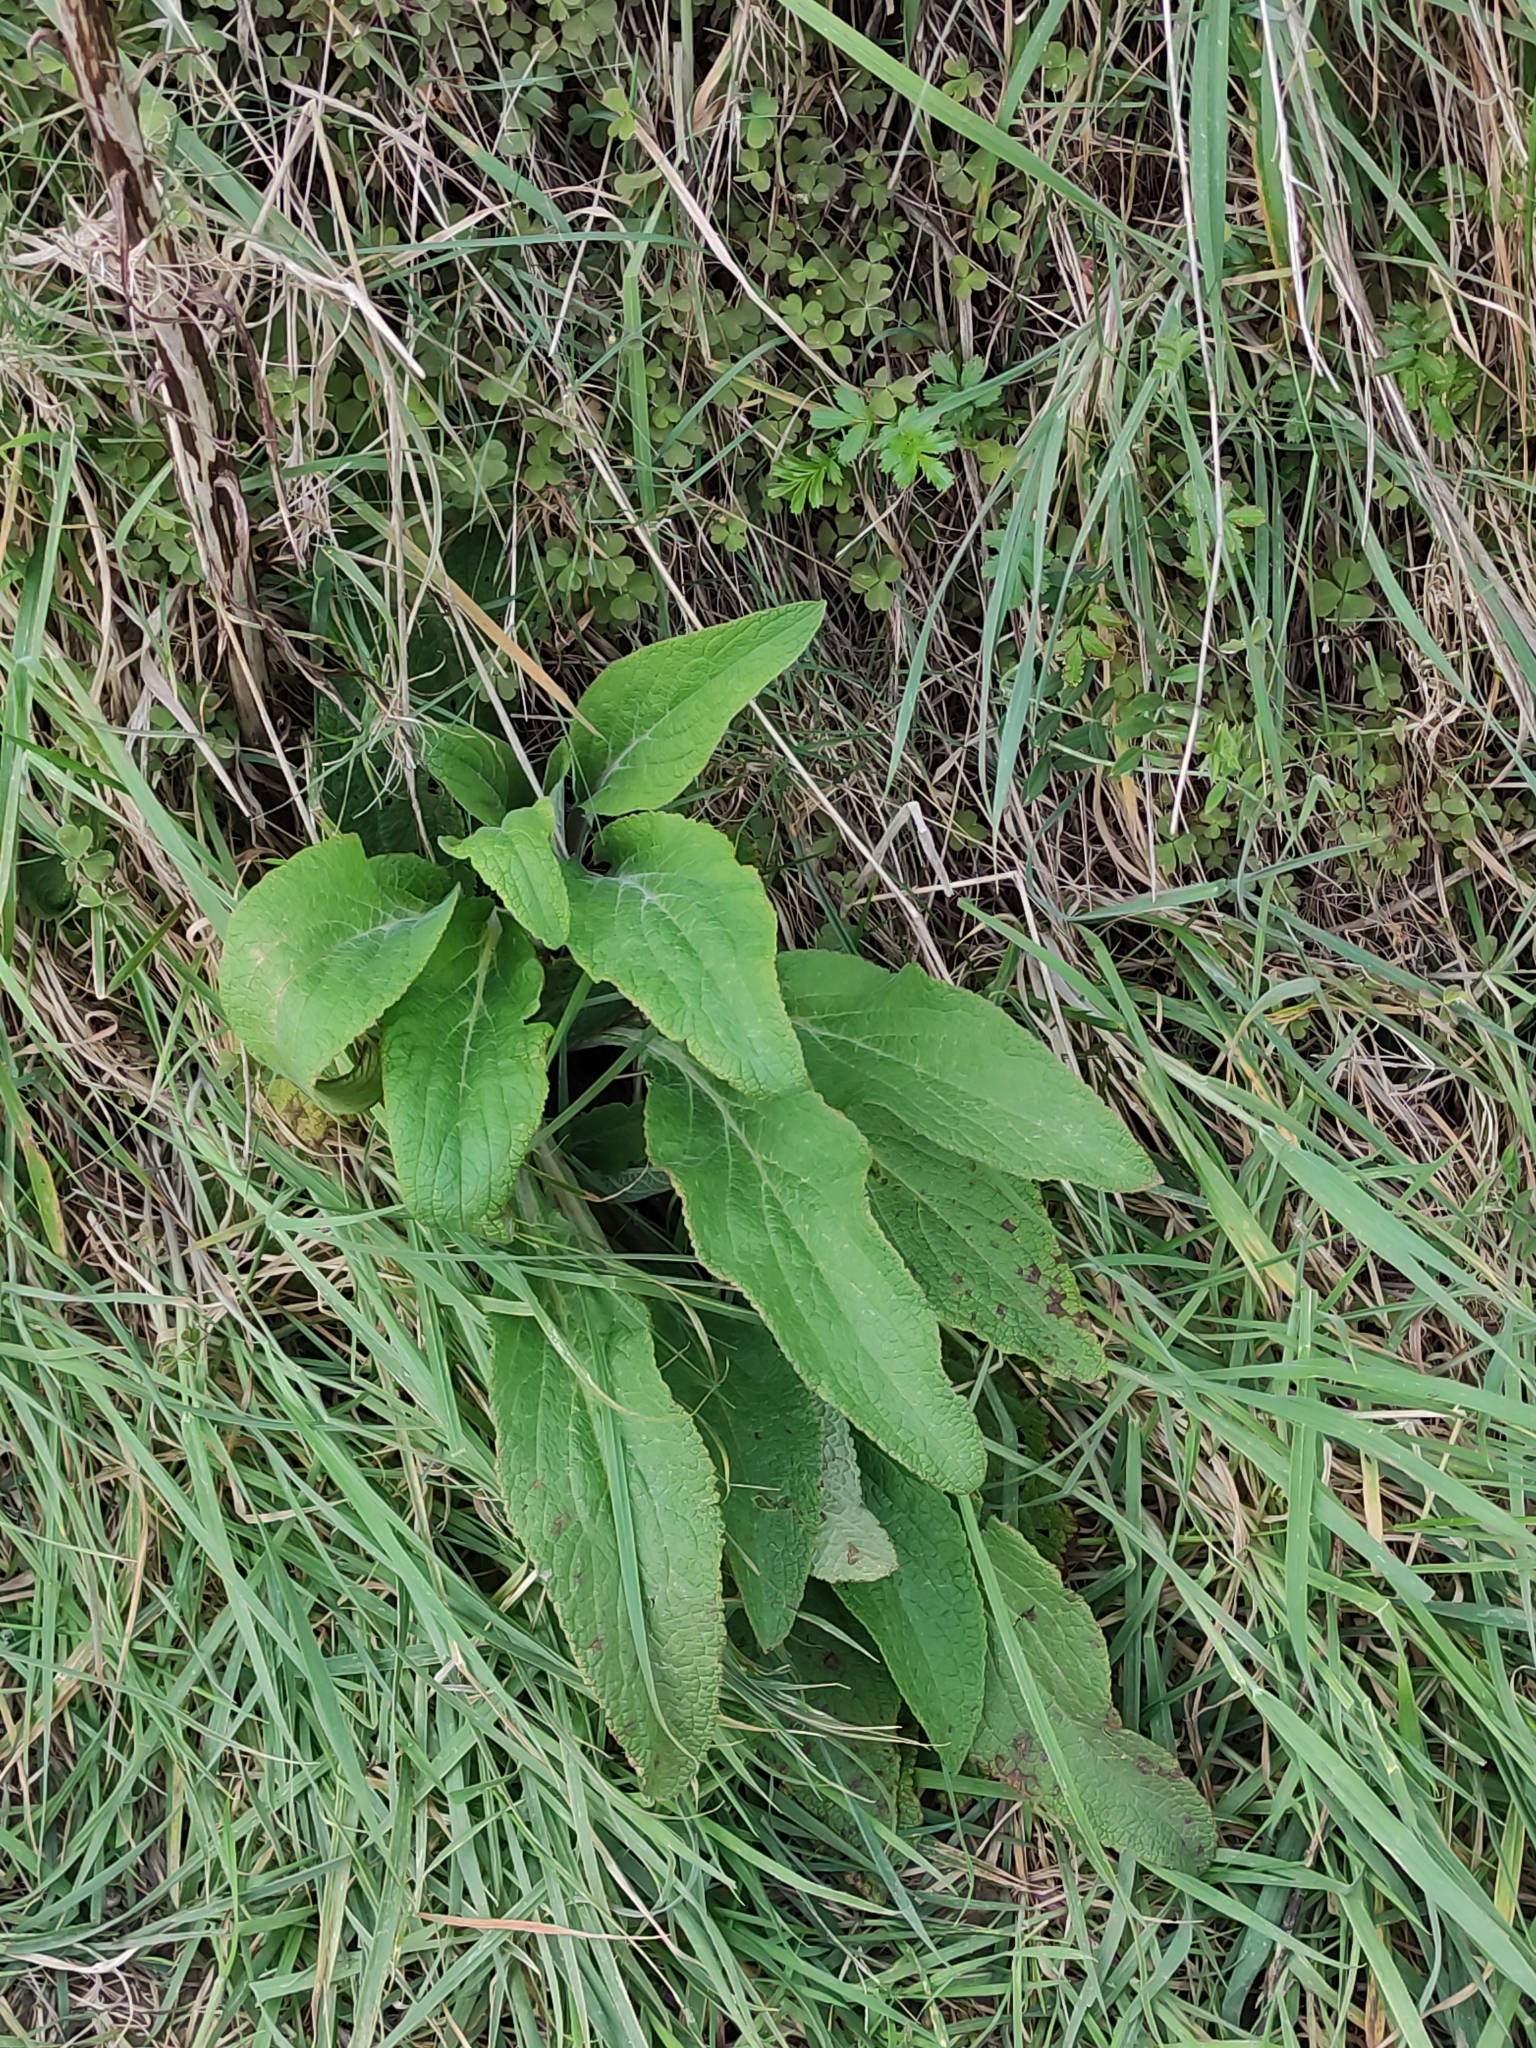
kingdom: Plantae
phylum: Tracheophyta
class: Magnoliopsida
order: Lamiales
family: Plantaginaceae
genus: Digitalis
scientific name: Digitalis purpurea
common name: Foxglove
